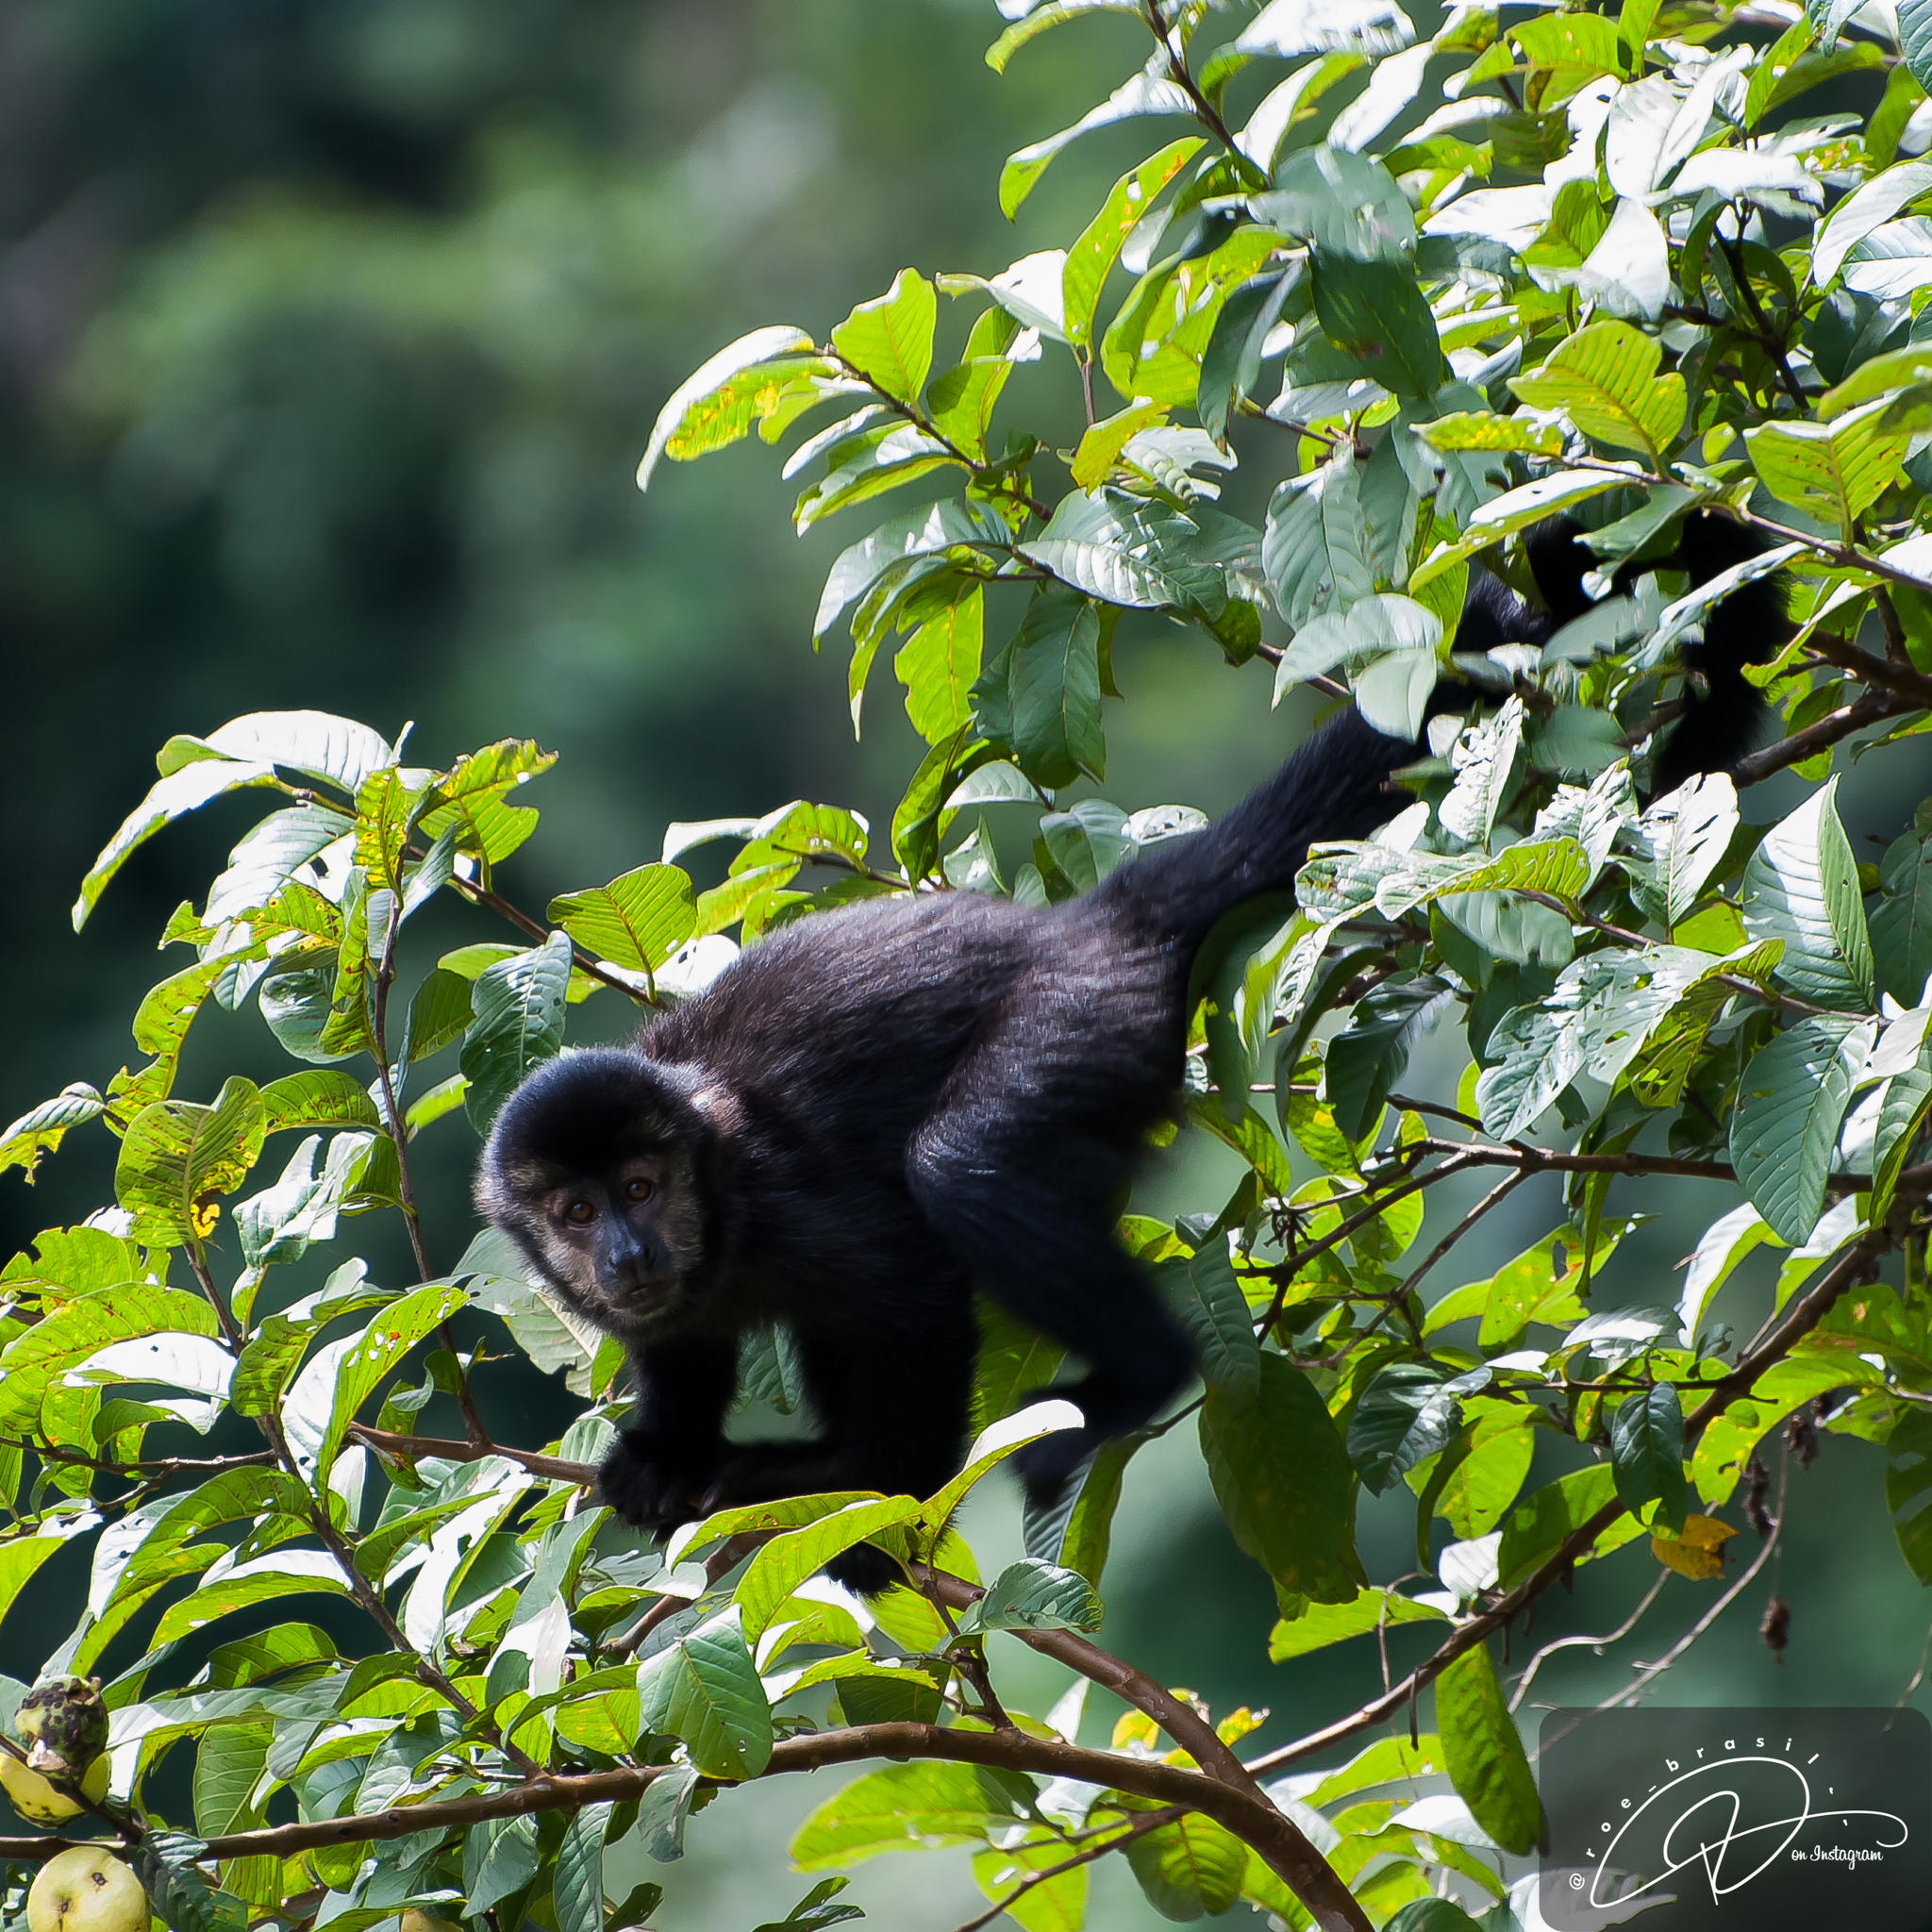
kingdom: Animalia
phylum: Chordata
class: Mammalia
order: Primates
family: Cebidae
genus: Sapajus
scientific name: Sapajus nigritus
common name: Black capuchin
